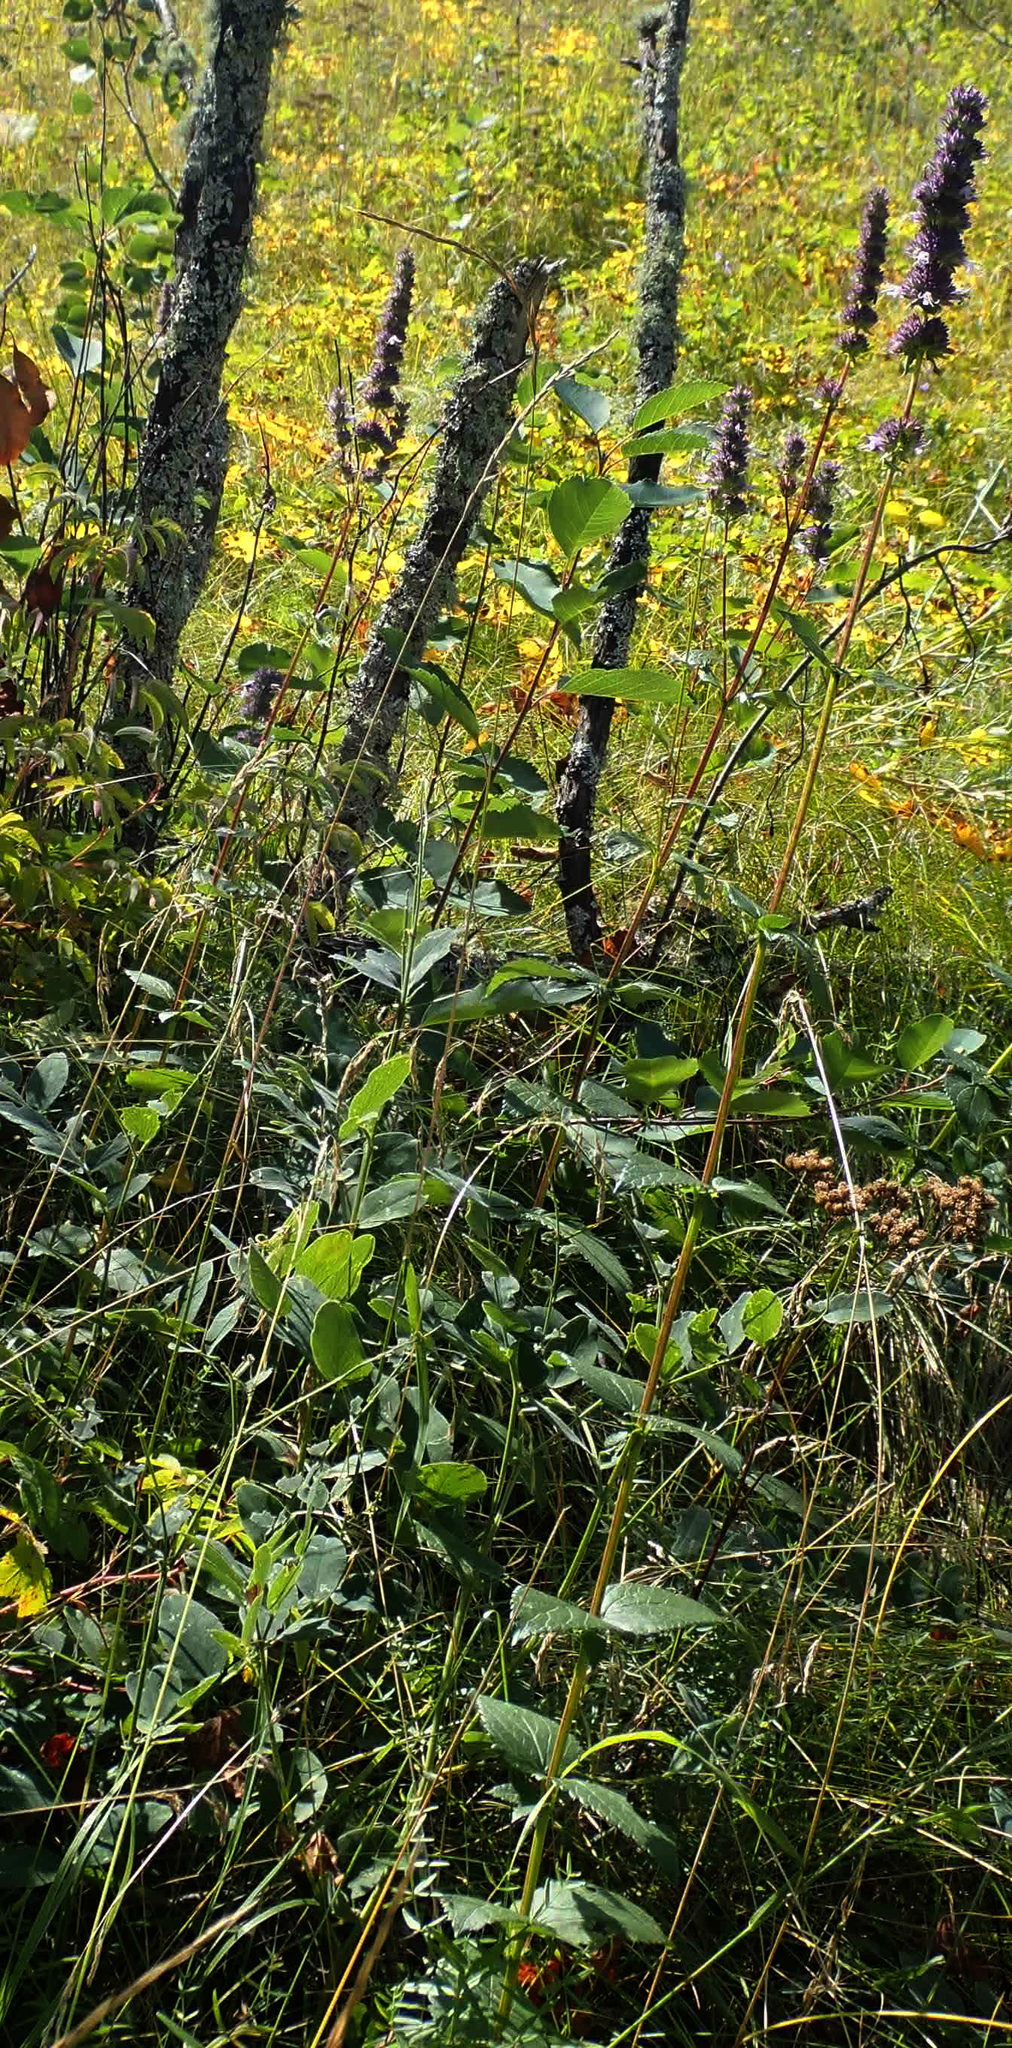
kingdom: Plantae
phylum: Tracheophyta
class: Magnoliopsida
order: Lamiales
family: Lamiaceae
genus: Agastache
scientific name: Agastache foeniculum
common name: Anise hyssop
